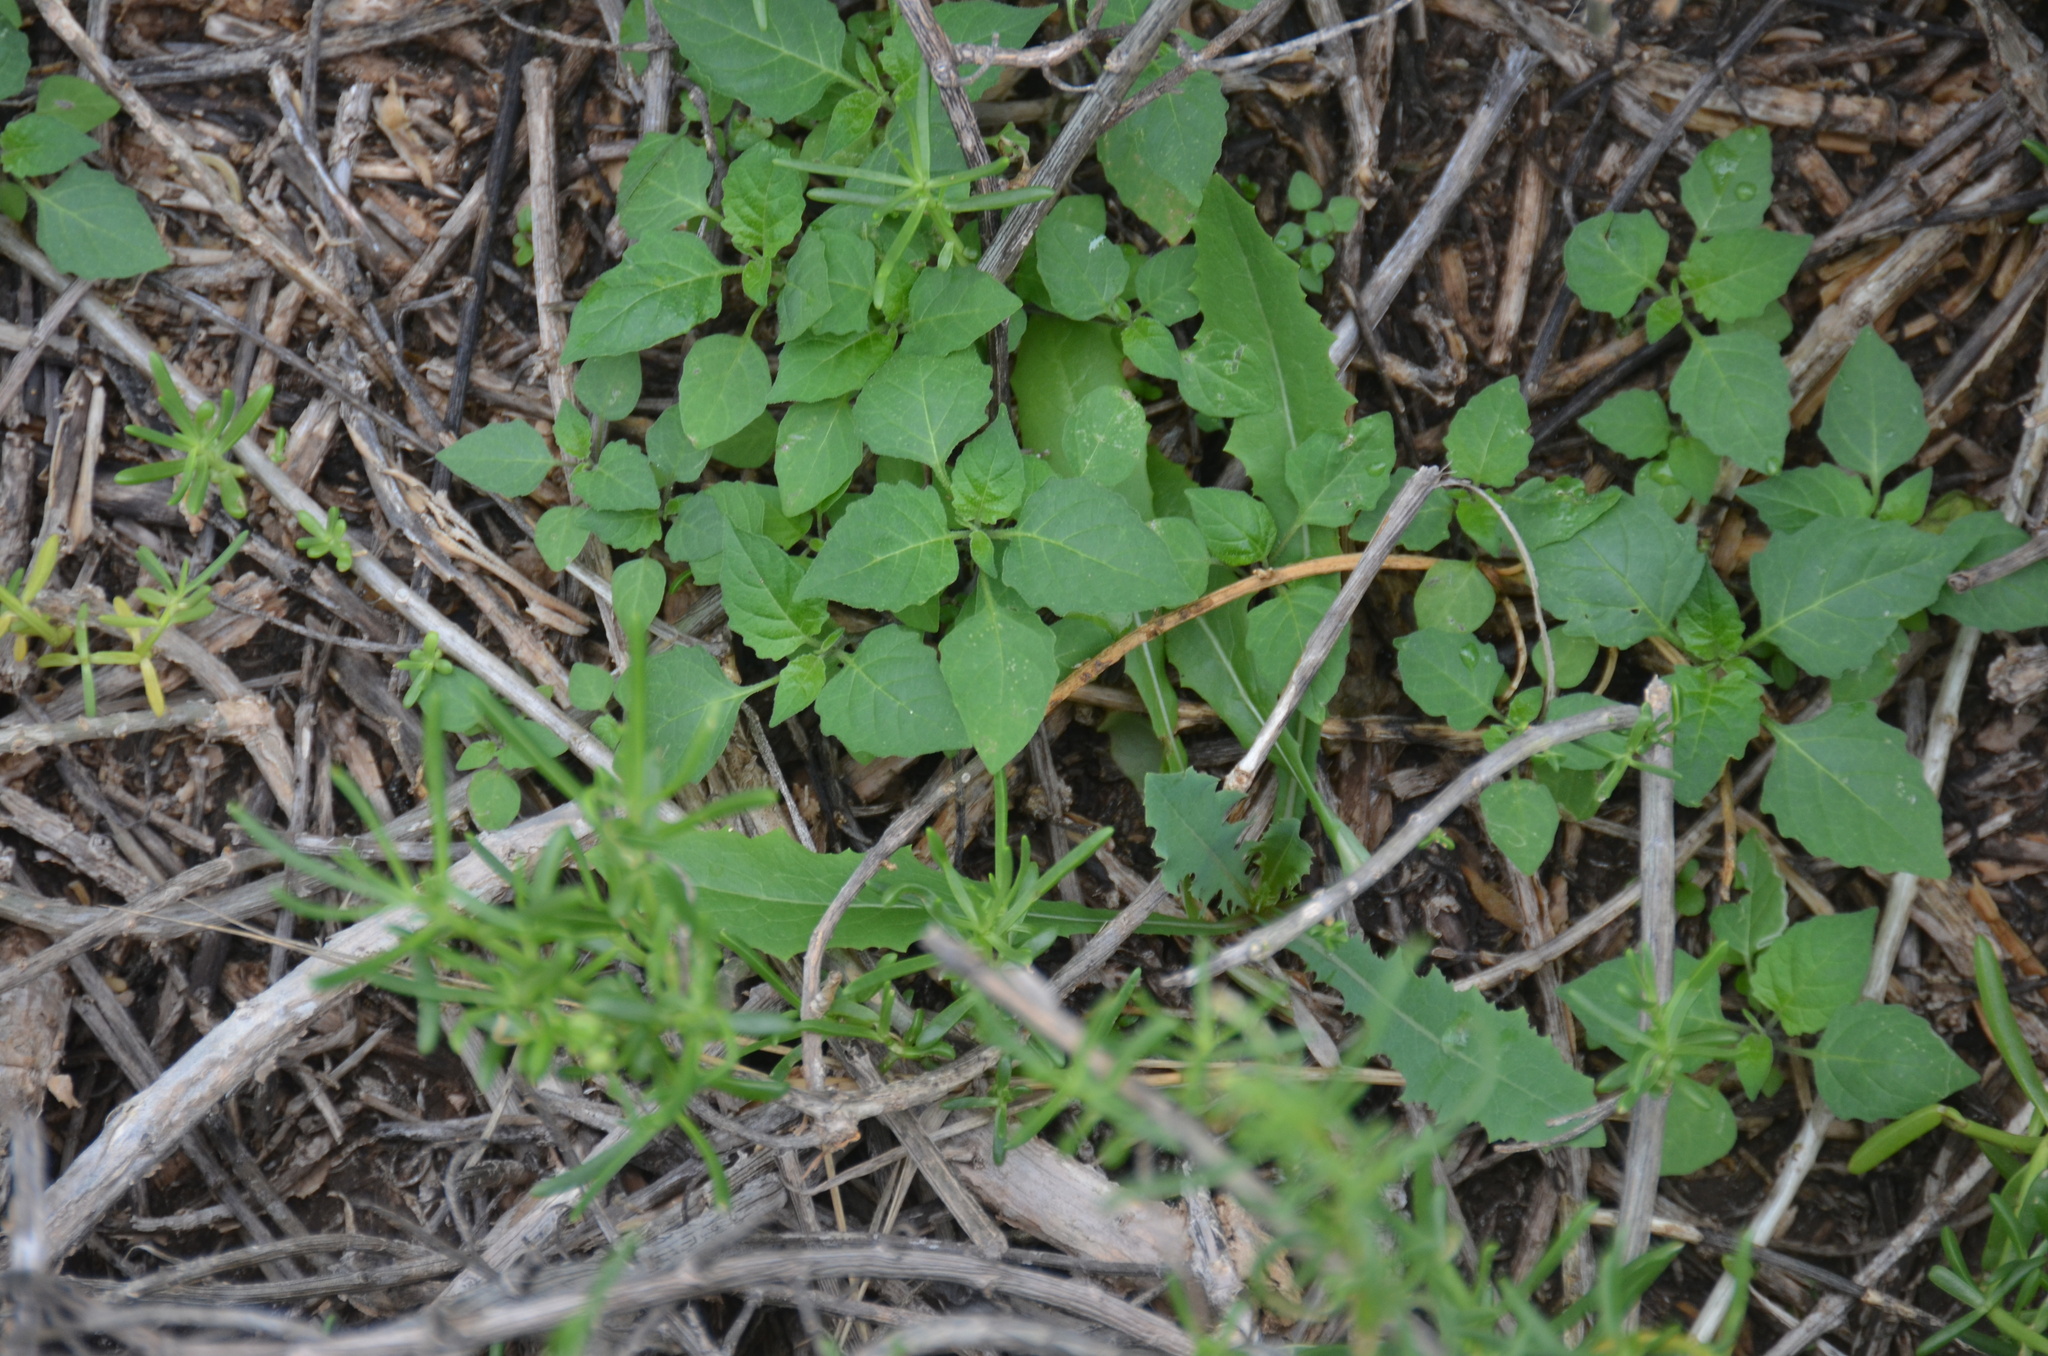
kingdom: Plantae
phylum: Tracheophyta
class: Magnoliopsida
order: Solanales
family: Solanaceae
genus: Solanum
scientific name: Solanum americanum
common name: American black nightshade
